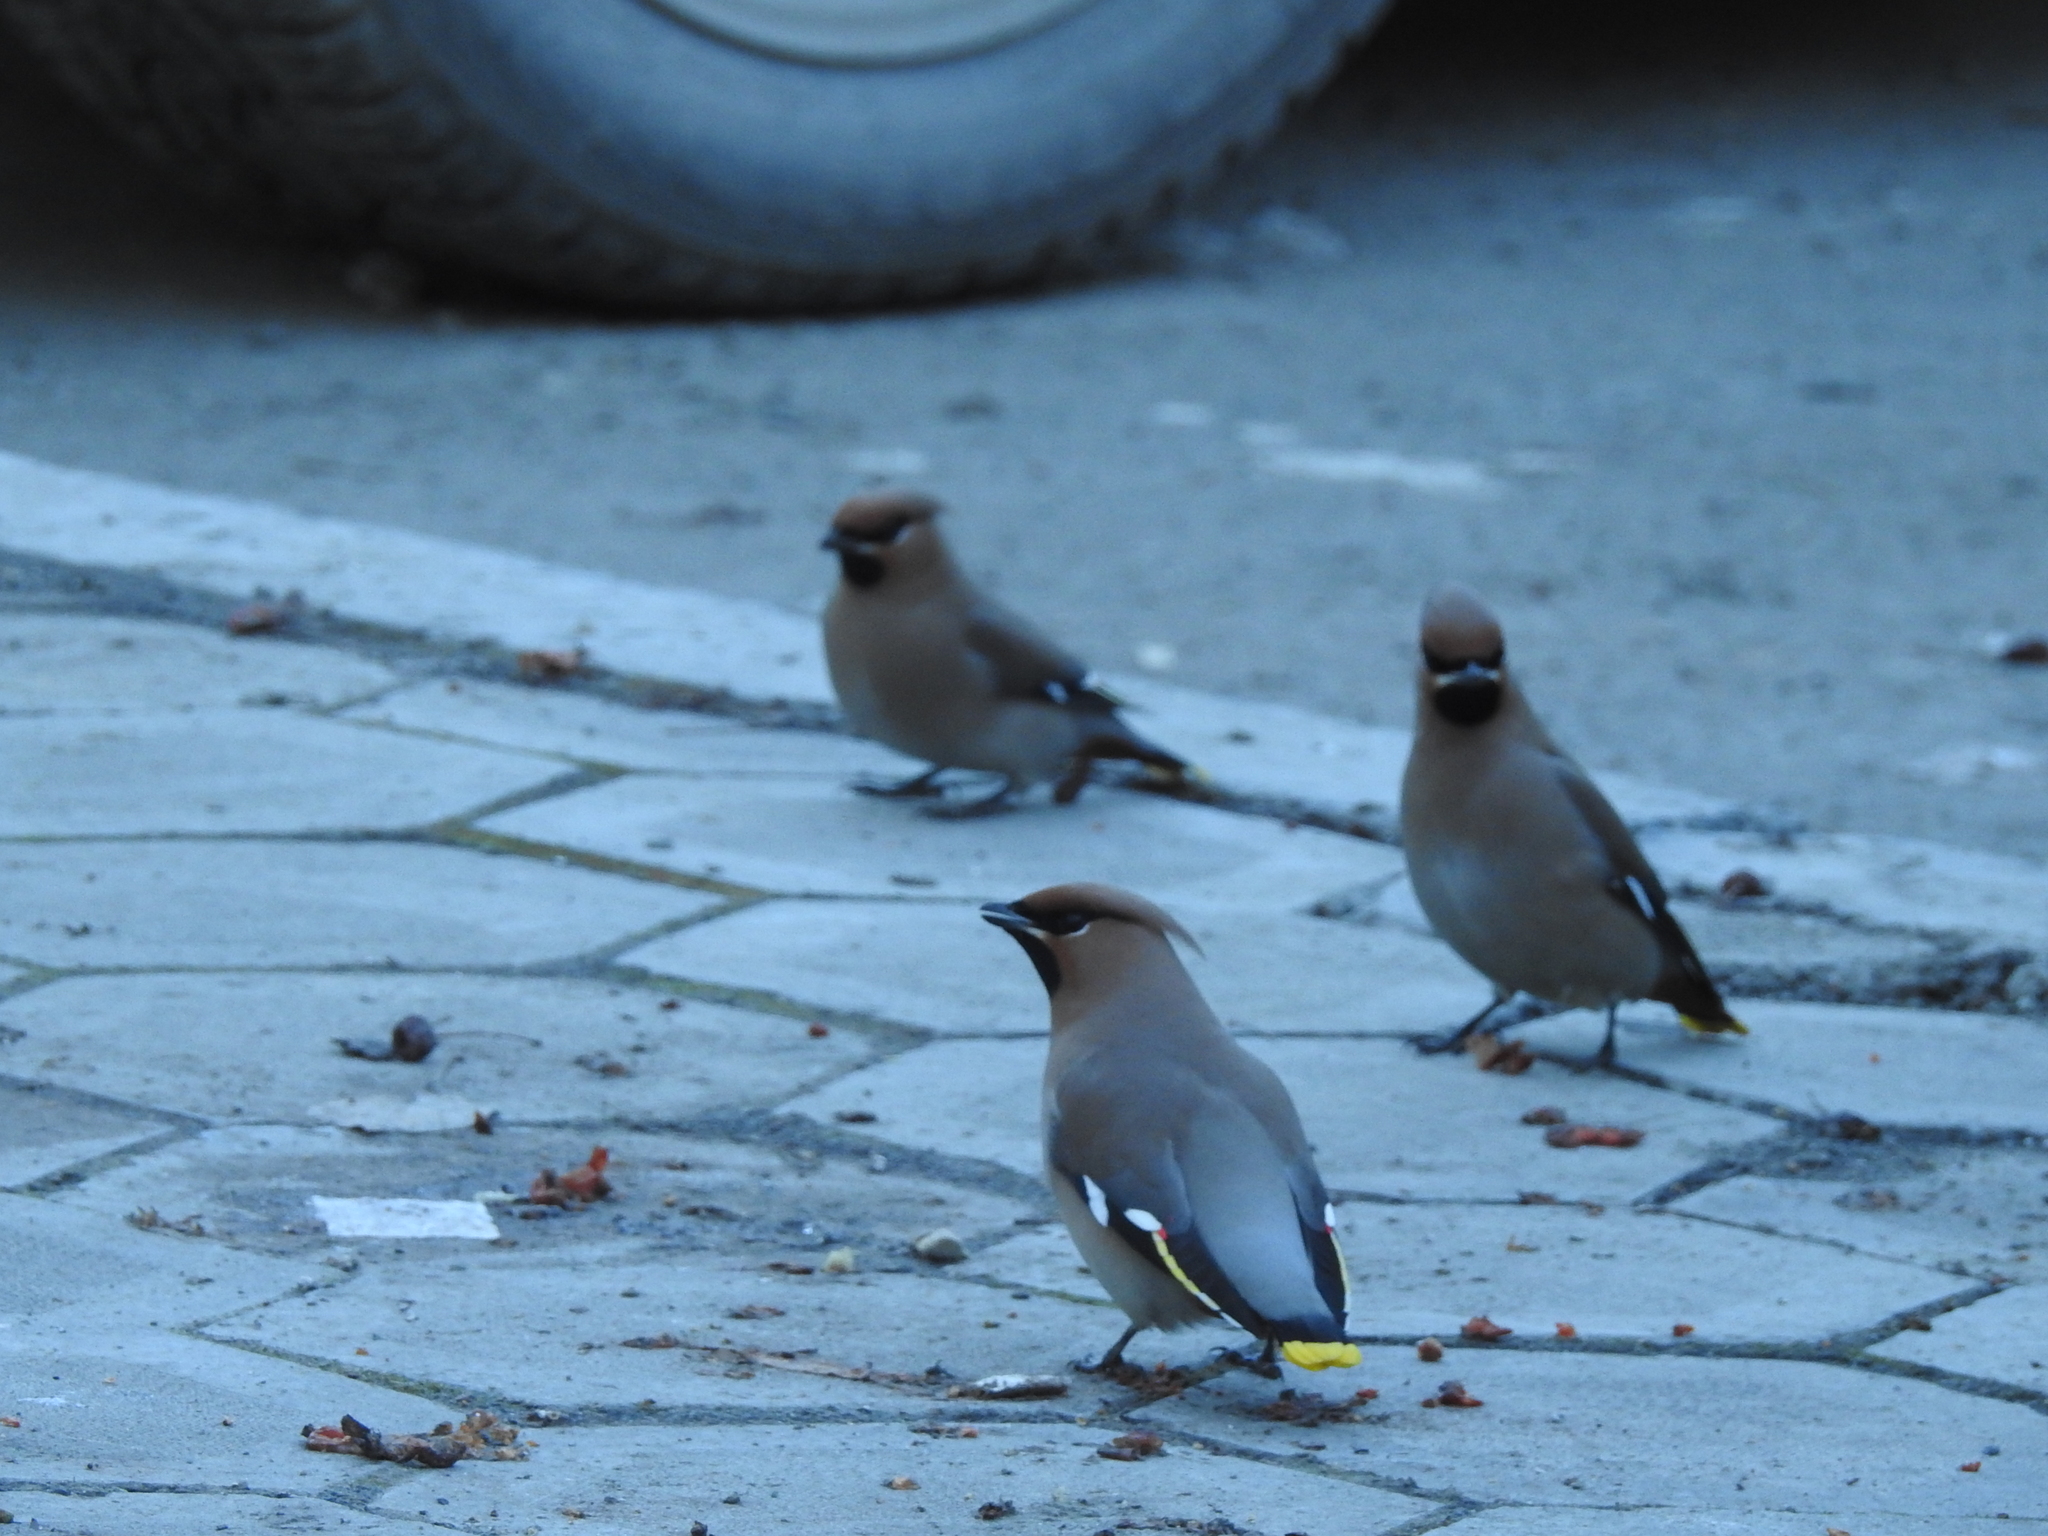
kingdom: Animalia
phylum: Chordata
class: Aves
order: Passeriformes
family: Bombycillidae
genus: Bombycilla
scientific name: Bombycilla garrulus
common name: Bohemian waxwing
